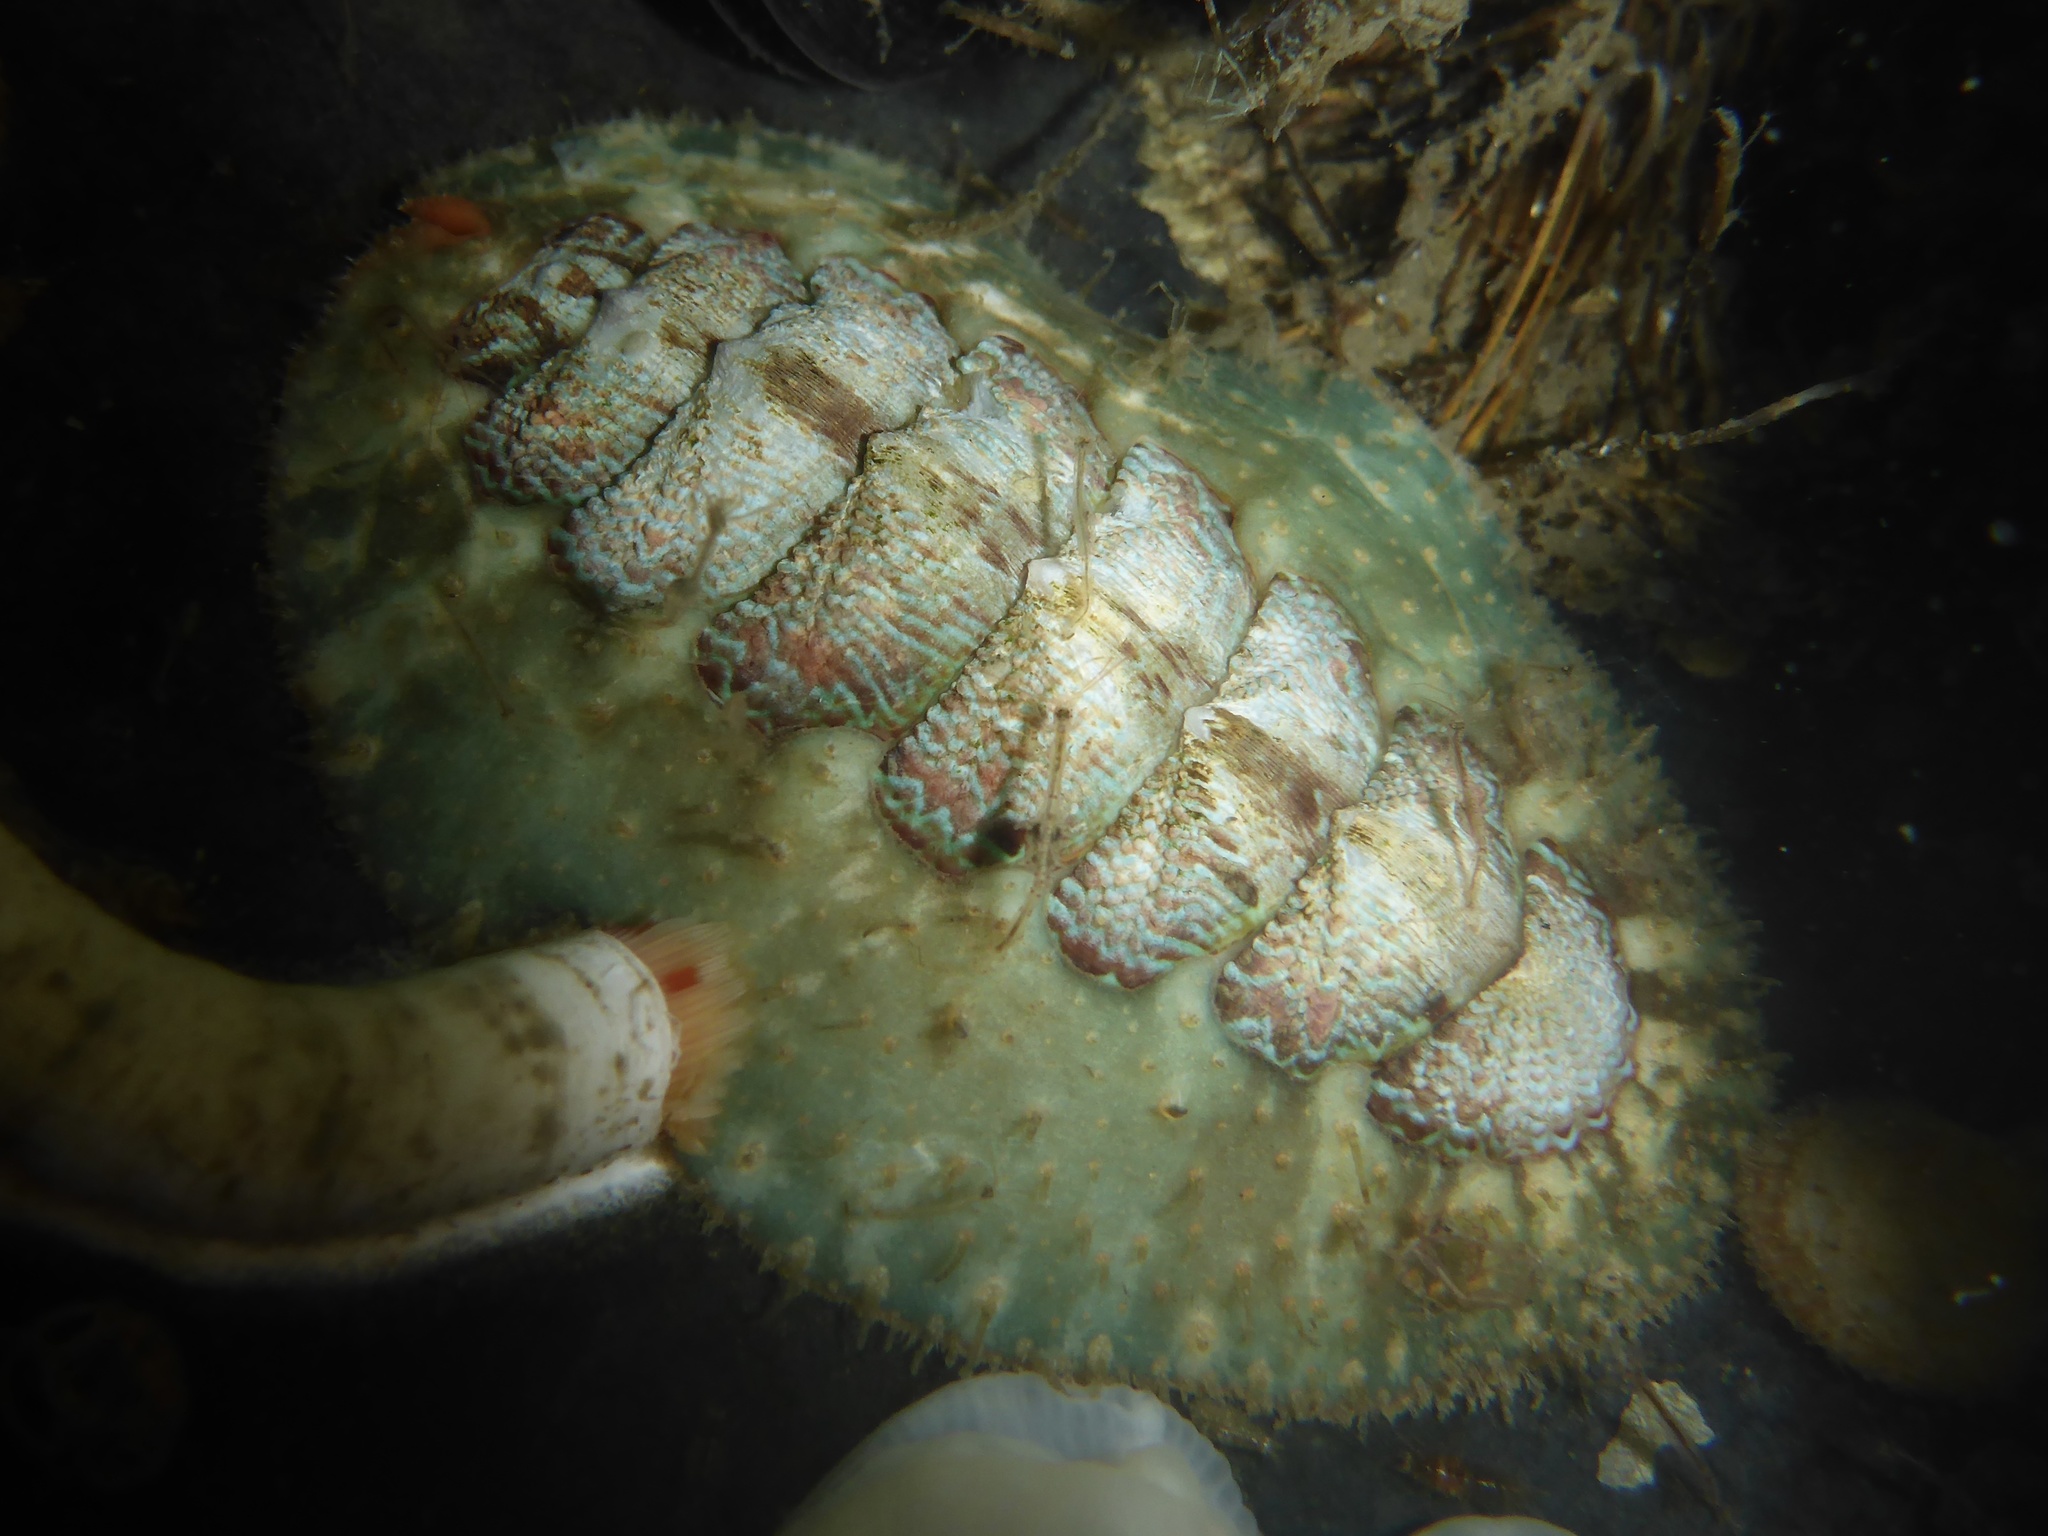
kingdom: Animalia
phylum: Mollusca
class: Polyplacophora
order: Chitonida
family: Mopaliidae
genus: Mopalia
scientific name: Mopalia spectabilis
